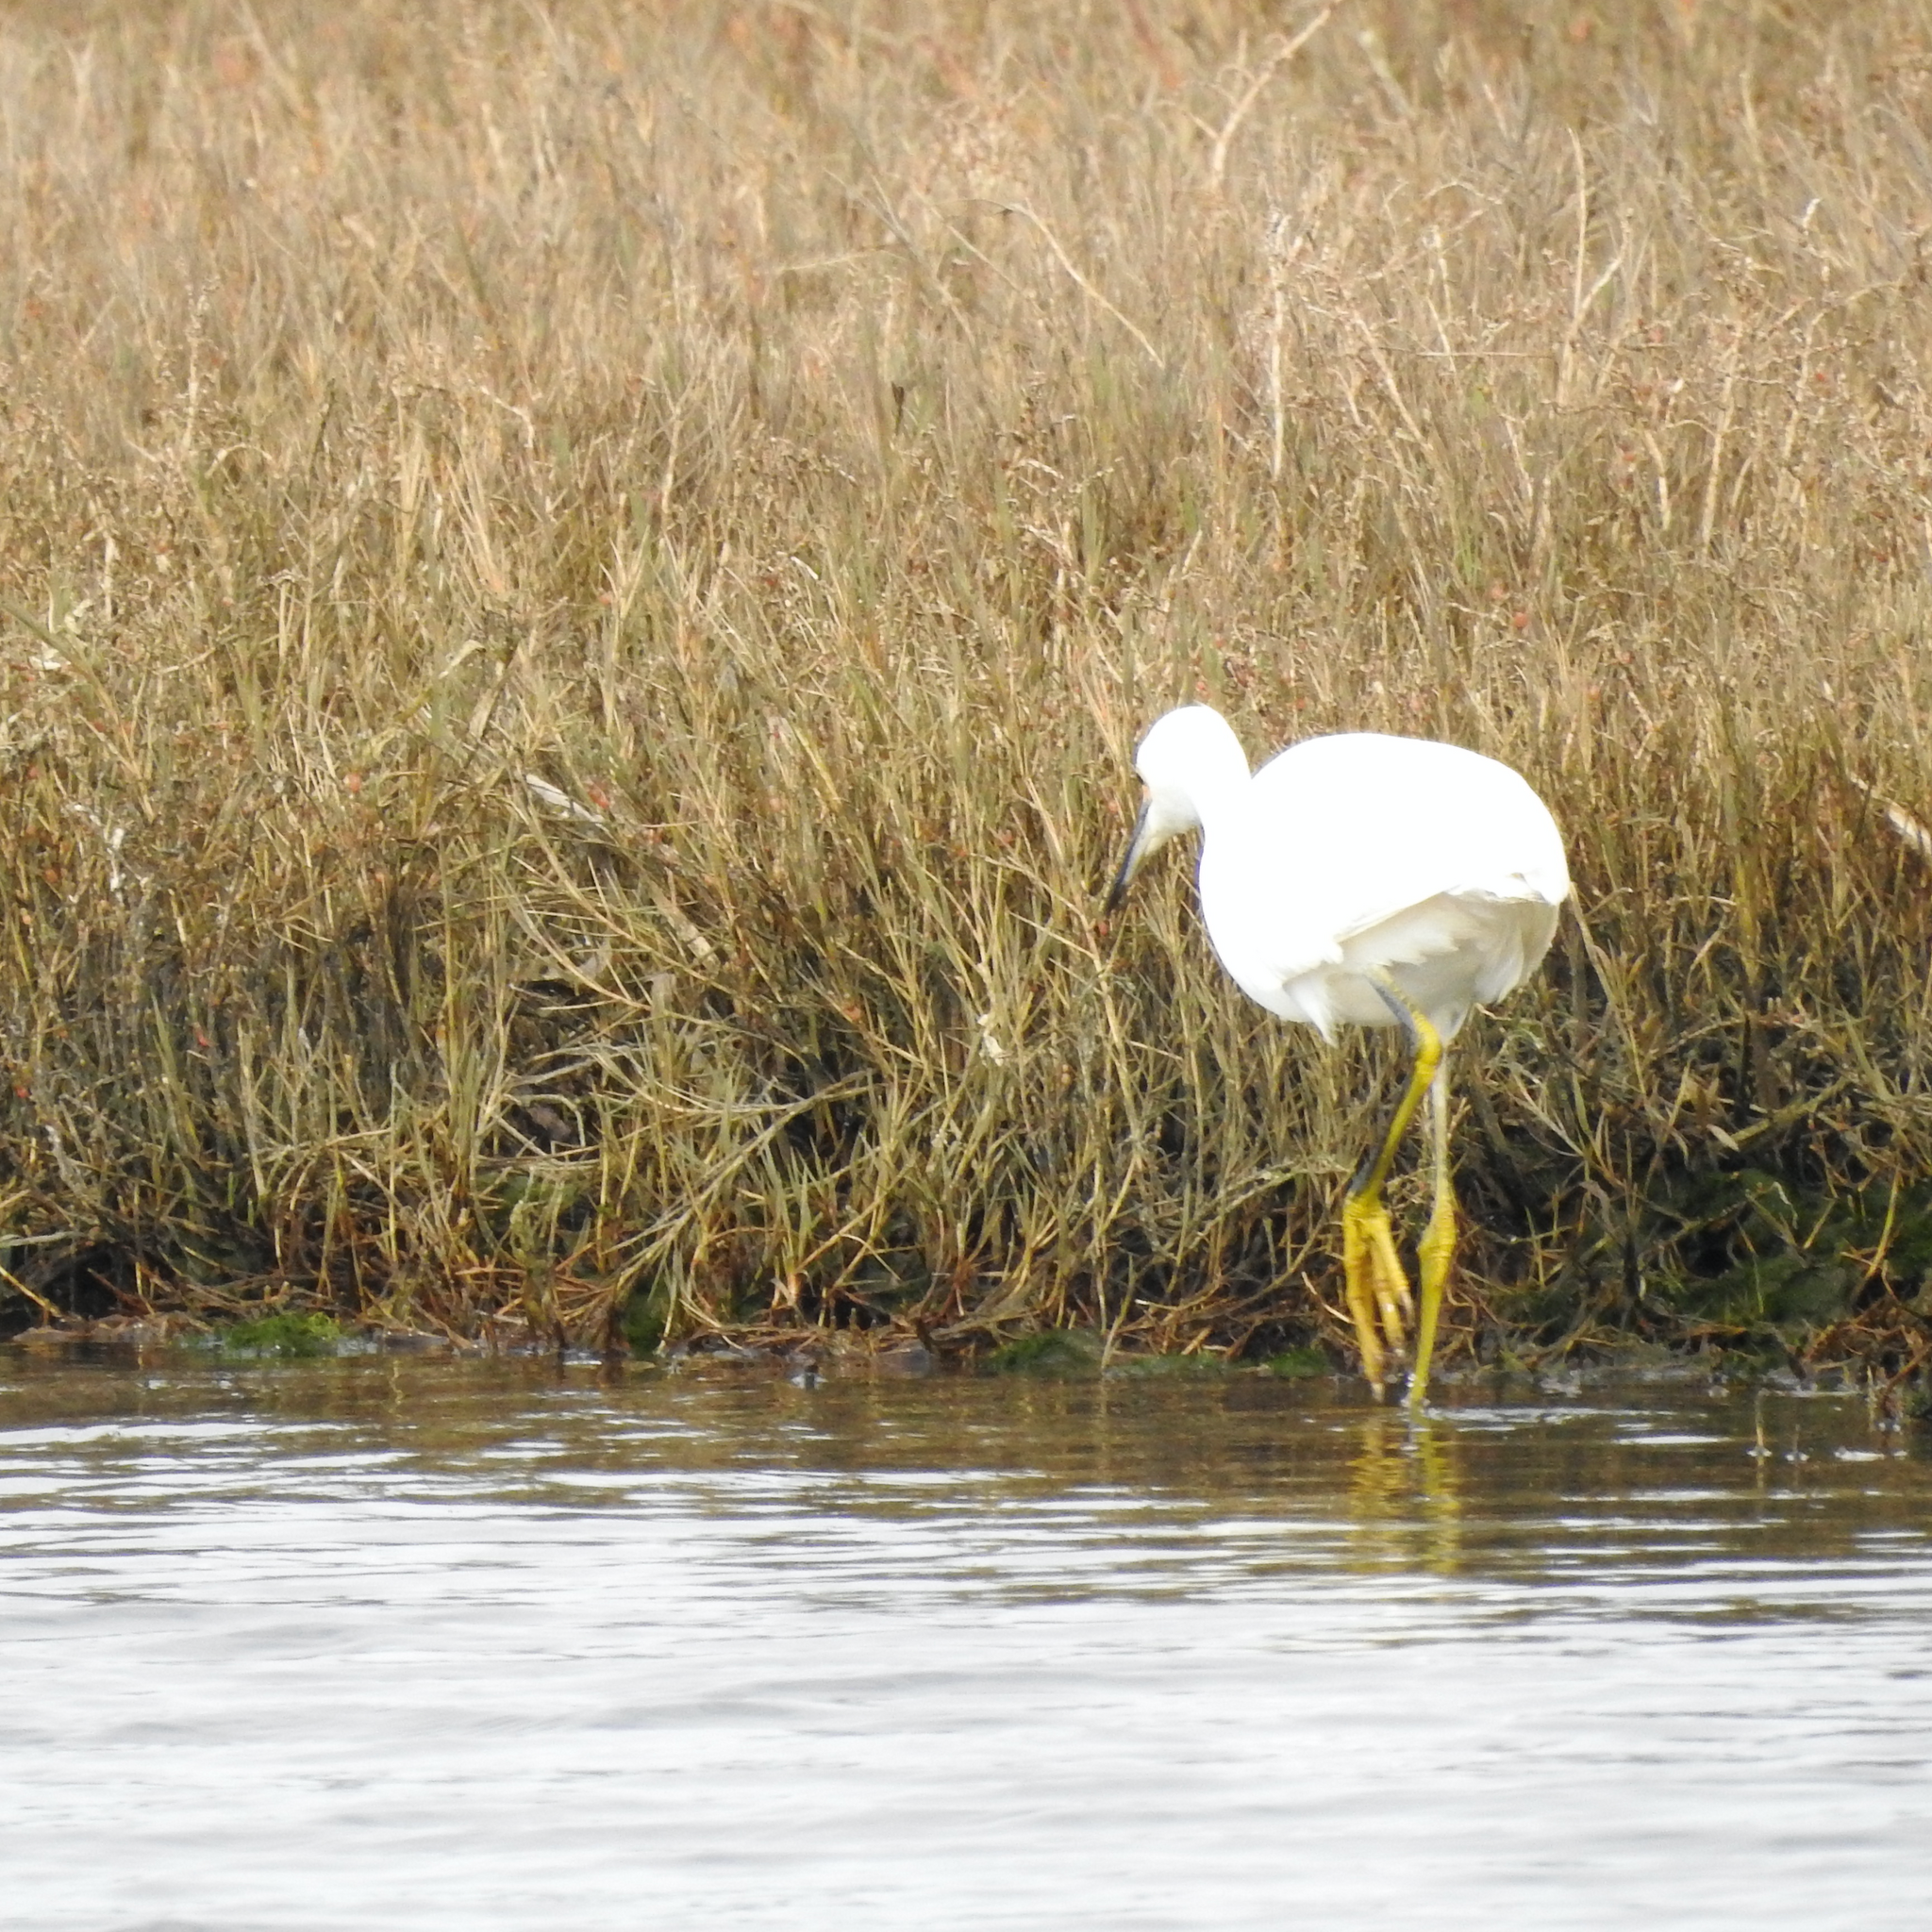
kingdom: Animalia
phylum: Chordata
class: Aves
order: Pelecaniformes
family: Ardeidae
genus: Egretta
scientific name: Egretta thula
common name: Snowy egret
